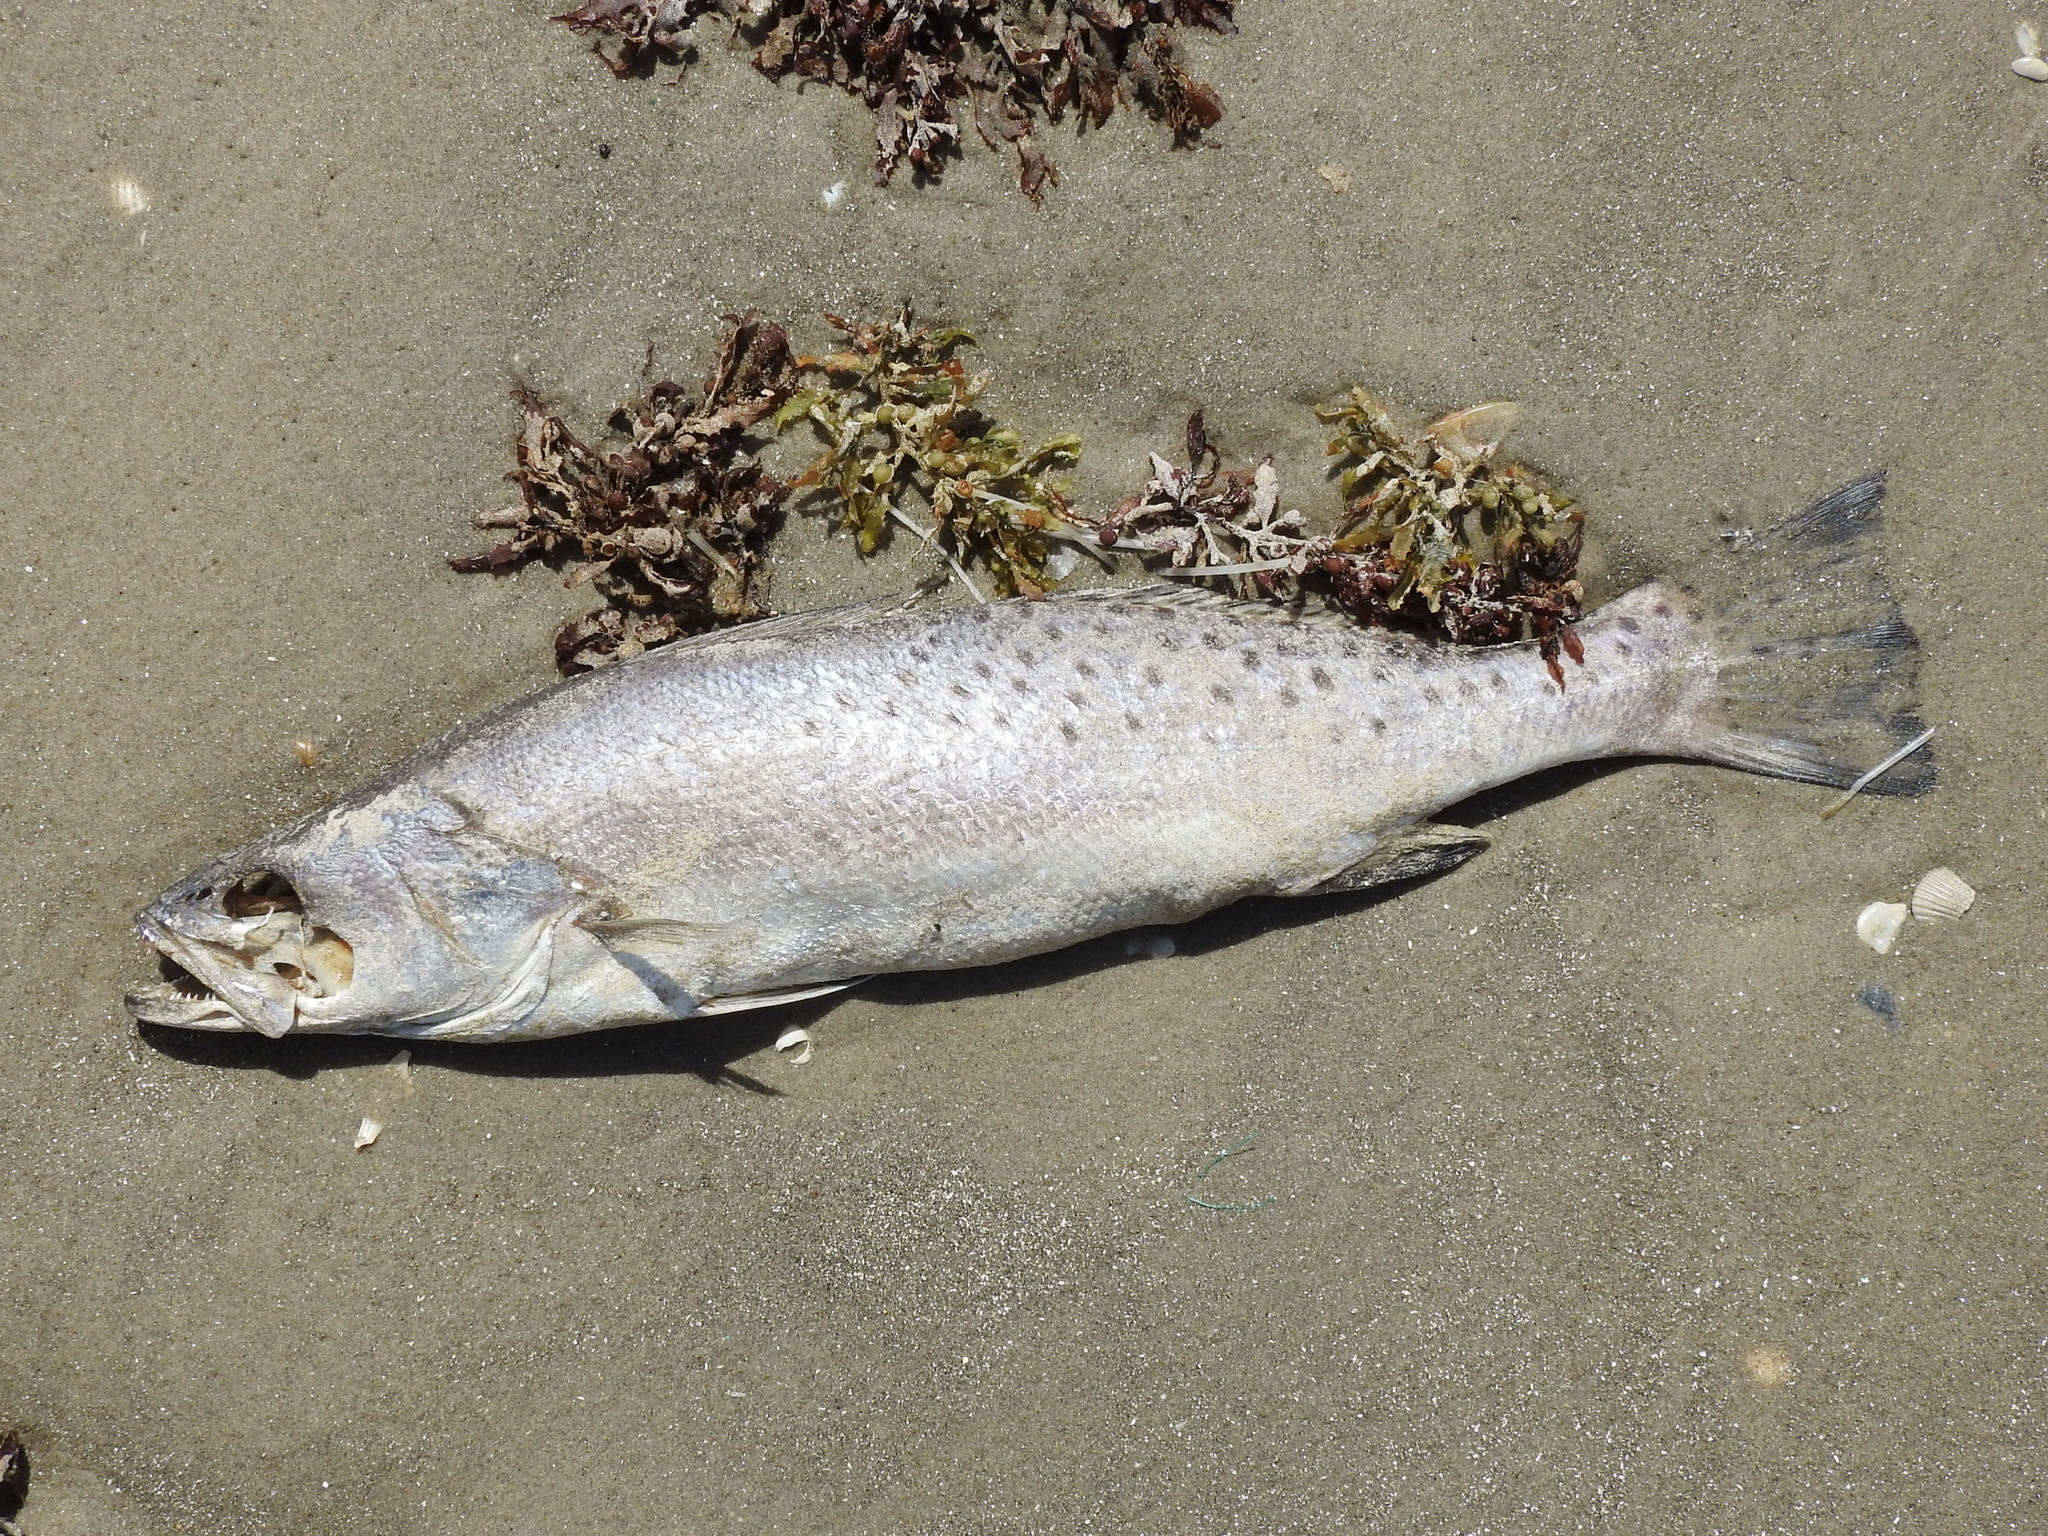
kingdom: Animalia
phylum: Chordata
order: Perciformes
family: Sciaenidae
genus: Cynoscion
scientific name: Cynoscion nebulosus
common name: Spotted seatrout
